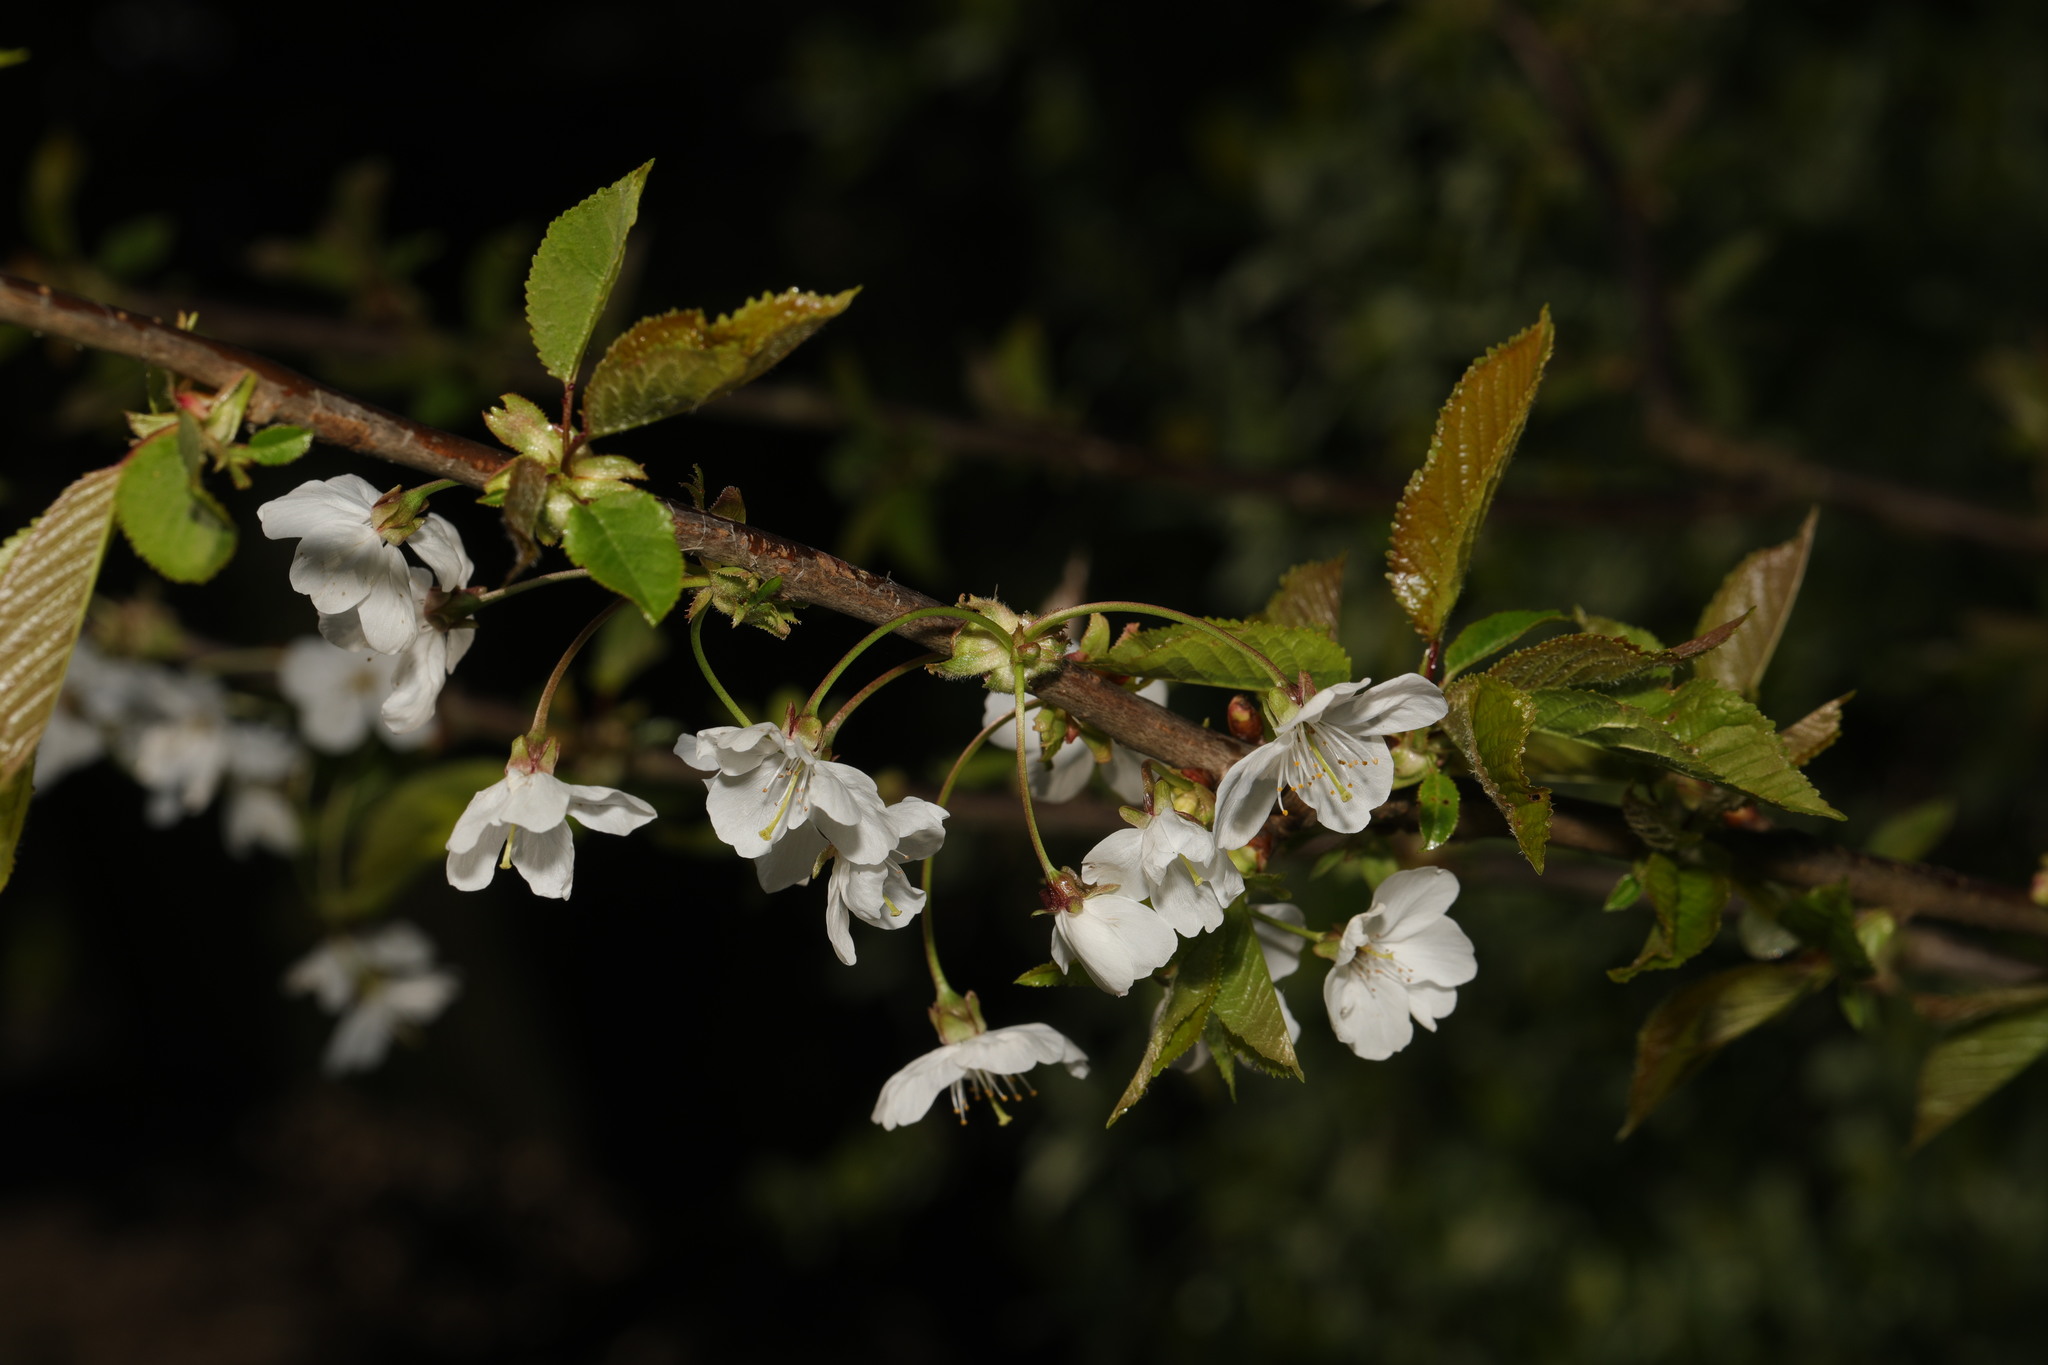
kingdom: Plantae
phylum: Tracheophyta
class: Magnoliopsida
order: Rosales
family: Rosaceae
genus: Prunus
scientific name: Prunus avium
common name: Sweet cherry
